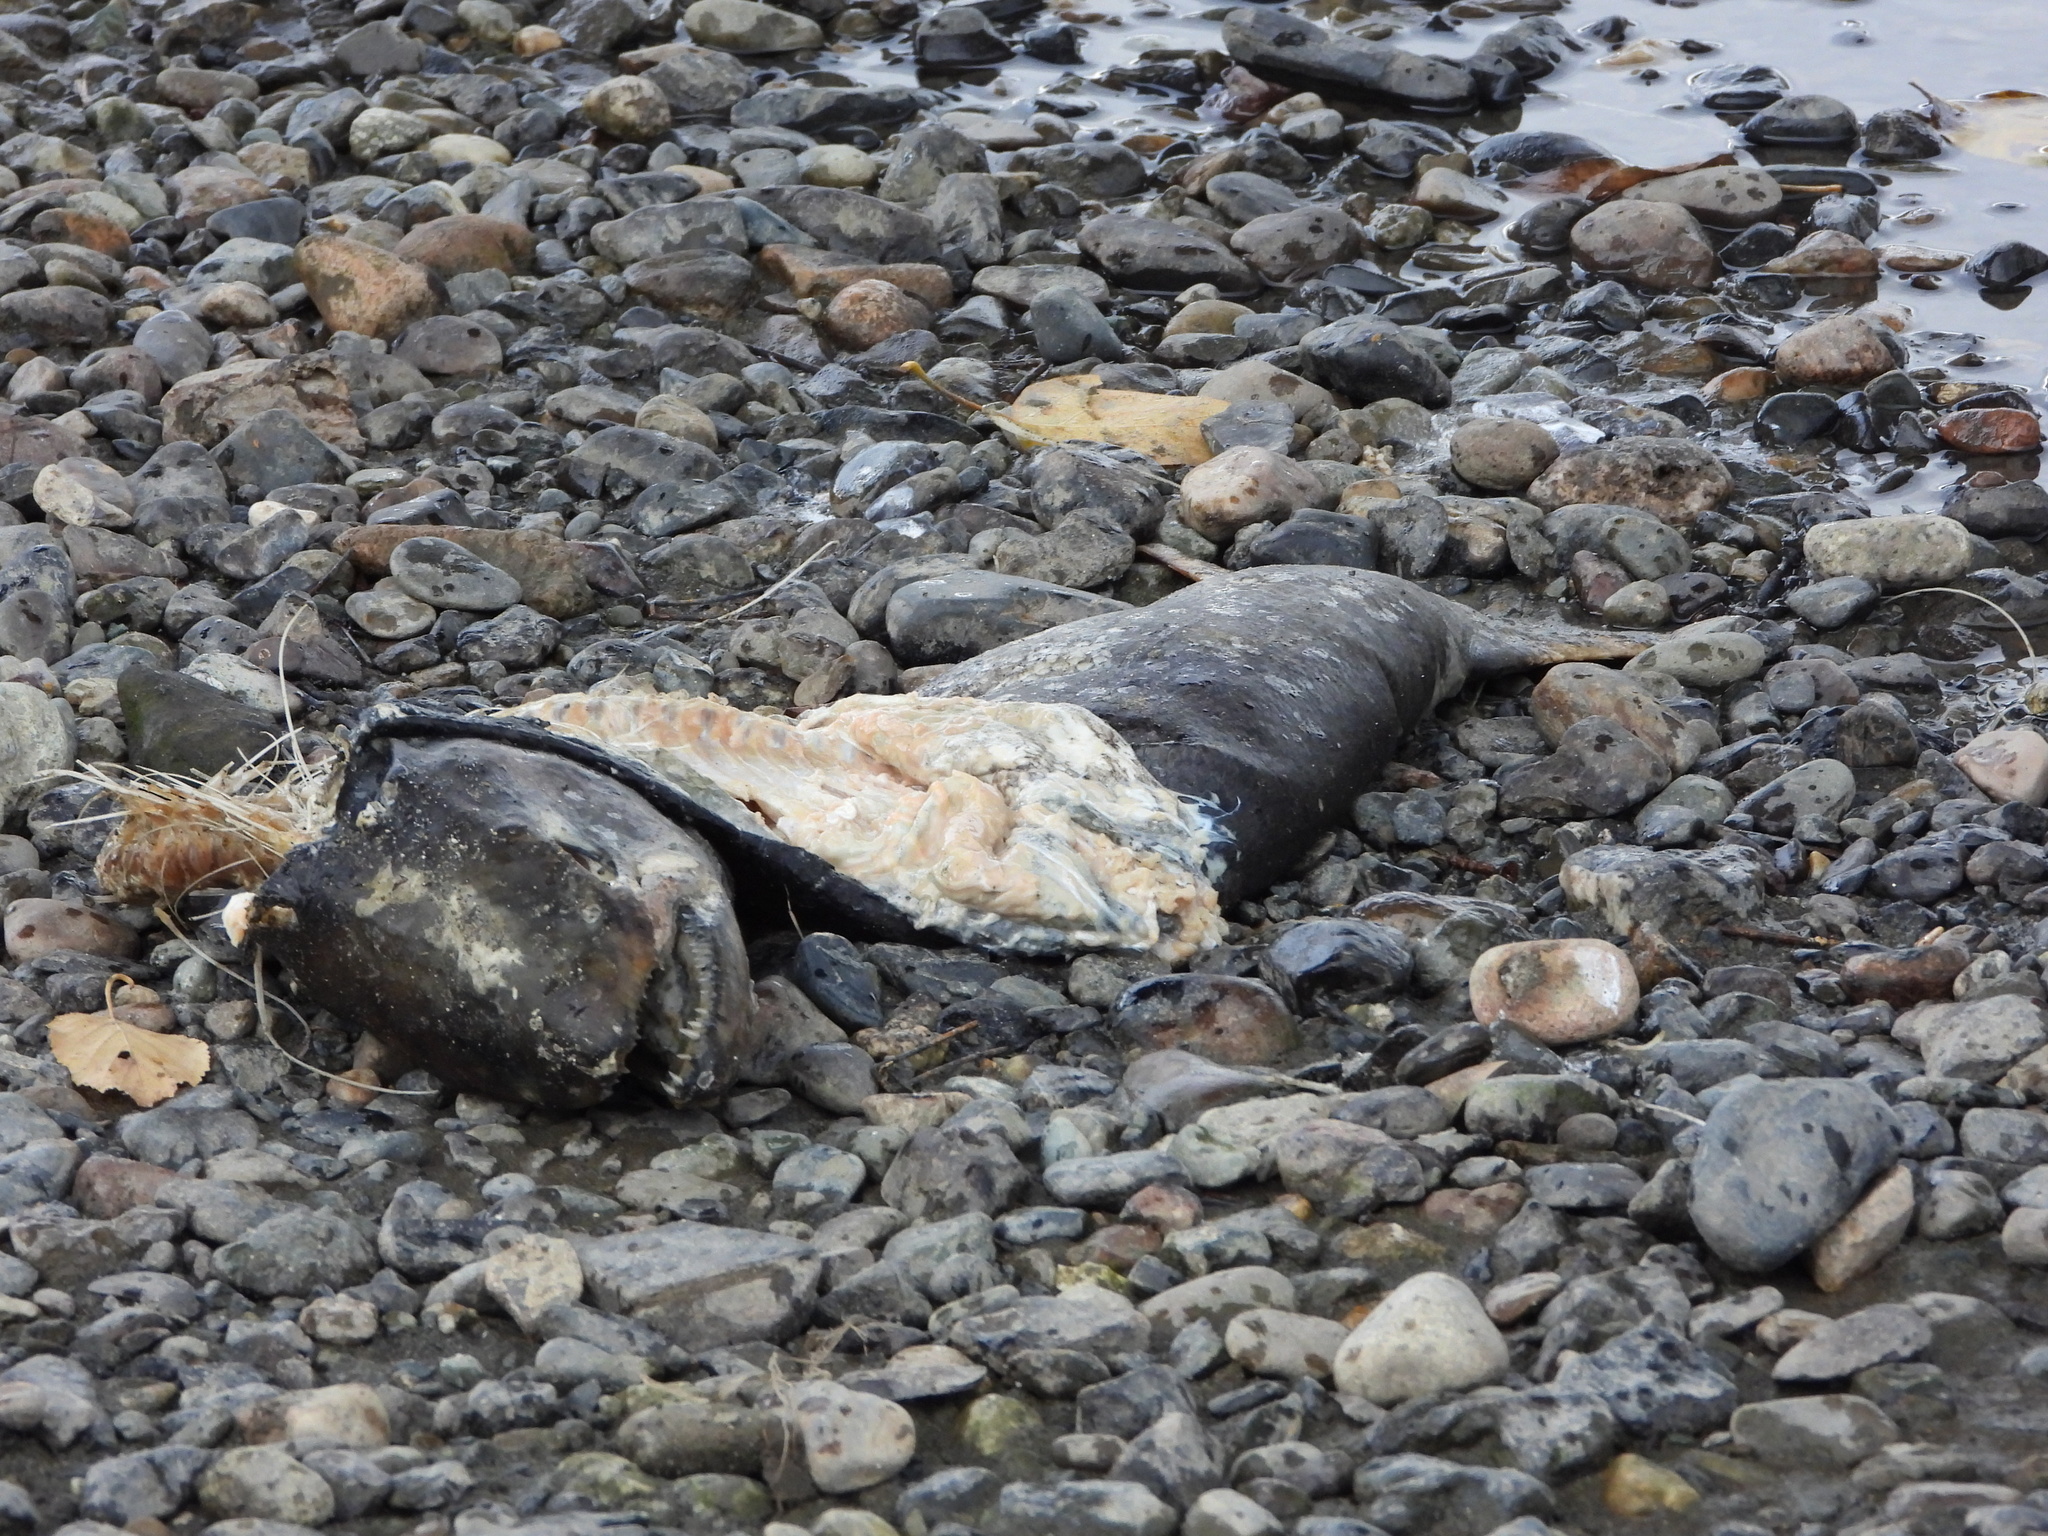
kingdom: Animalia
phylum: Chordata
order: Salmoniformes
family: Salmonidae
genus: Oncorhynchus
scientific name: Oncorhynchus tshawytscha
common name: Chinook salmon
